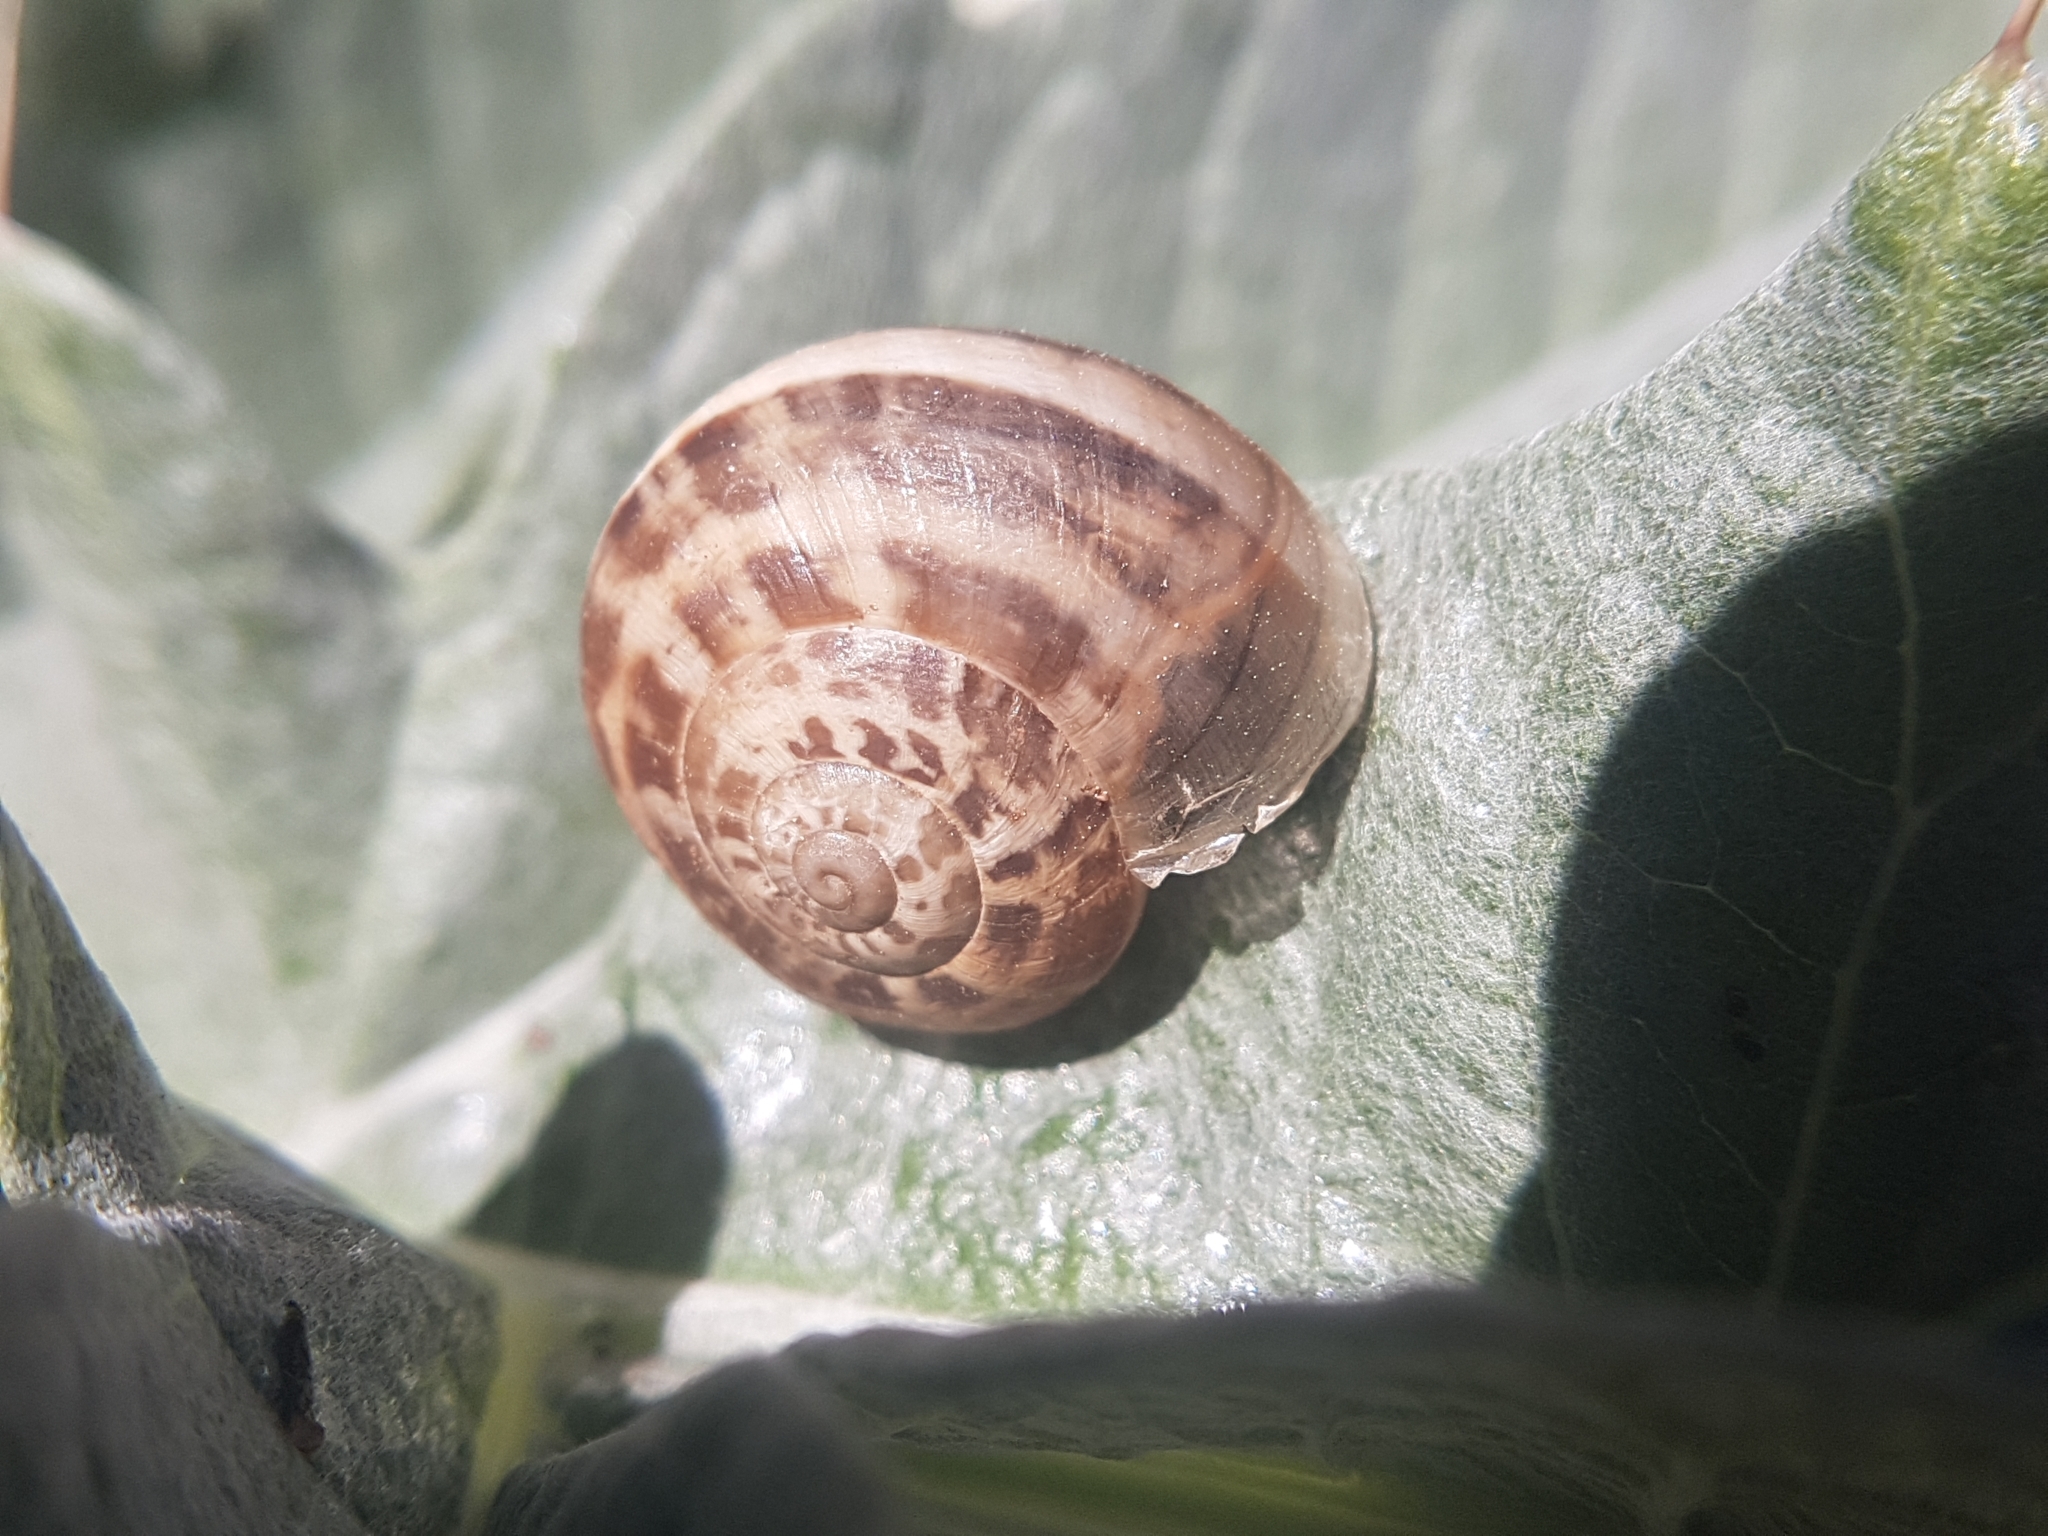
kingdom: Animalia
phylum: Mollusca
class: Gastropoda
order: Stylommatophora
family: Helicidae
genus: Eobania
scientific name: Eobania vermiculata
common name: Chocolateband snail
